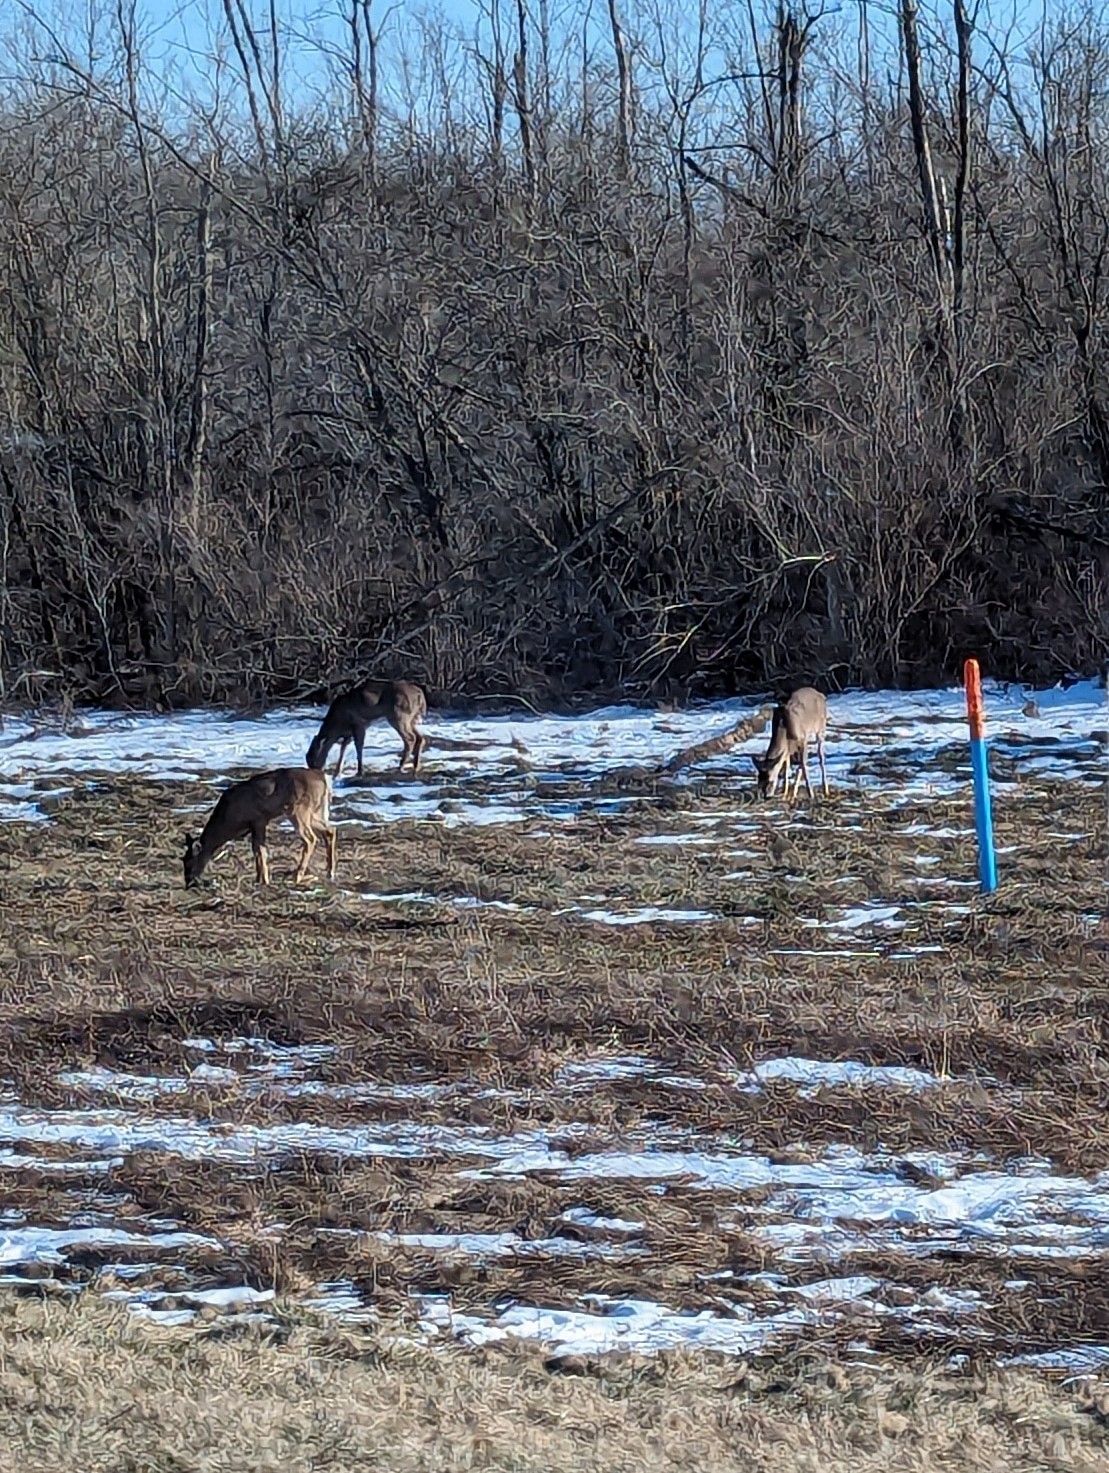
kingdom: Animalia
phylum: Chordata
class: Mammalia
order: Artiodactyla
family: Cervidae
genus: Odocoileus
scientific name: Odocoileus virginianus
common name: White-tailed deer
